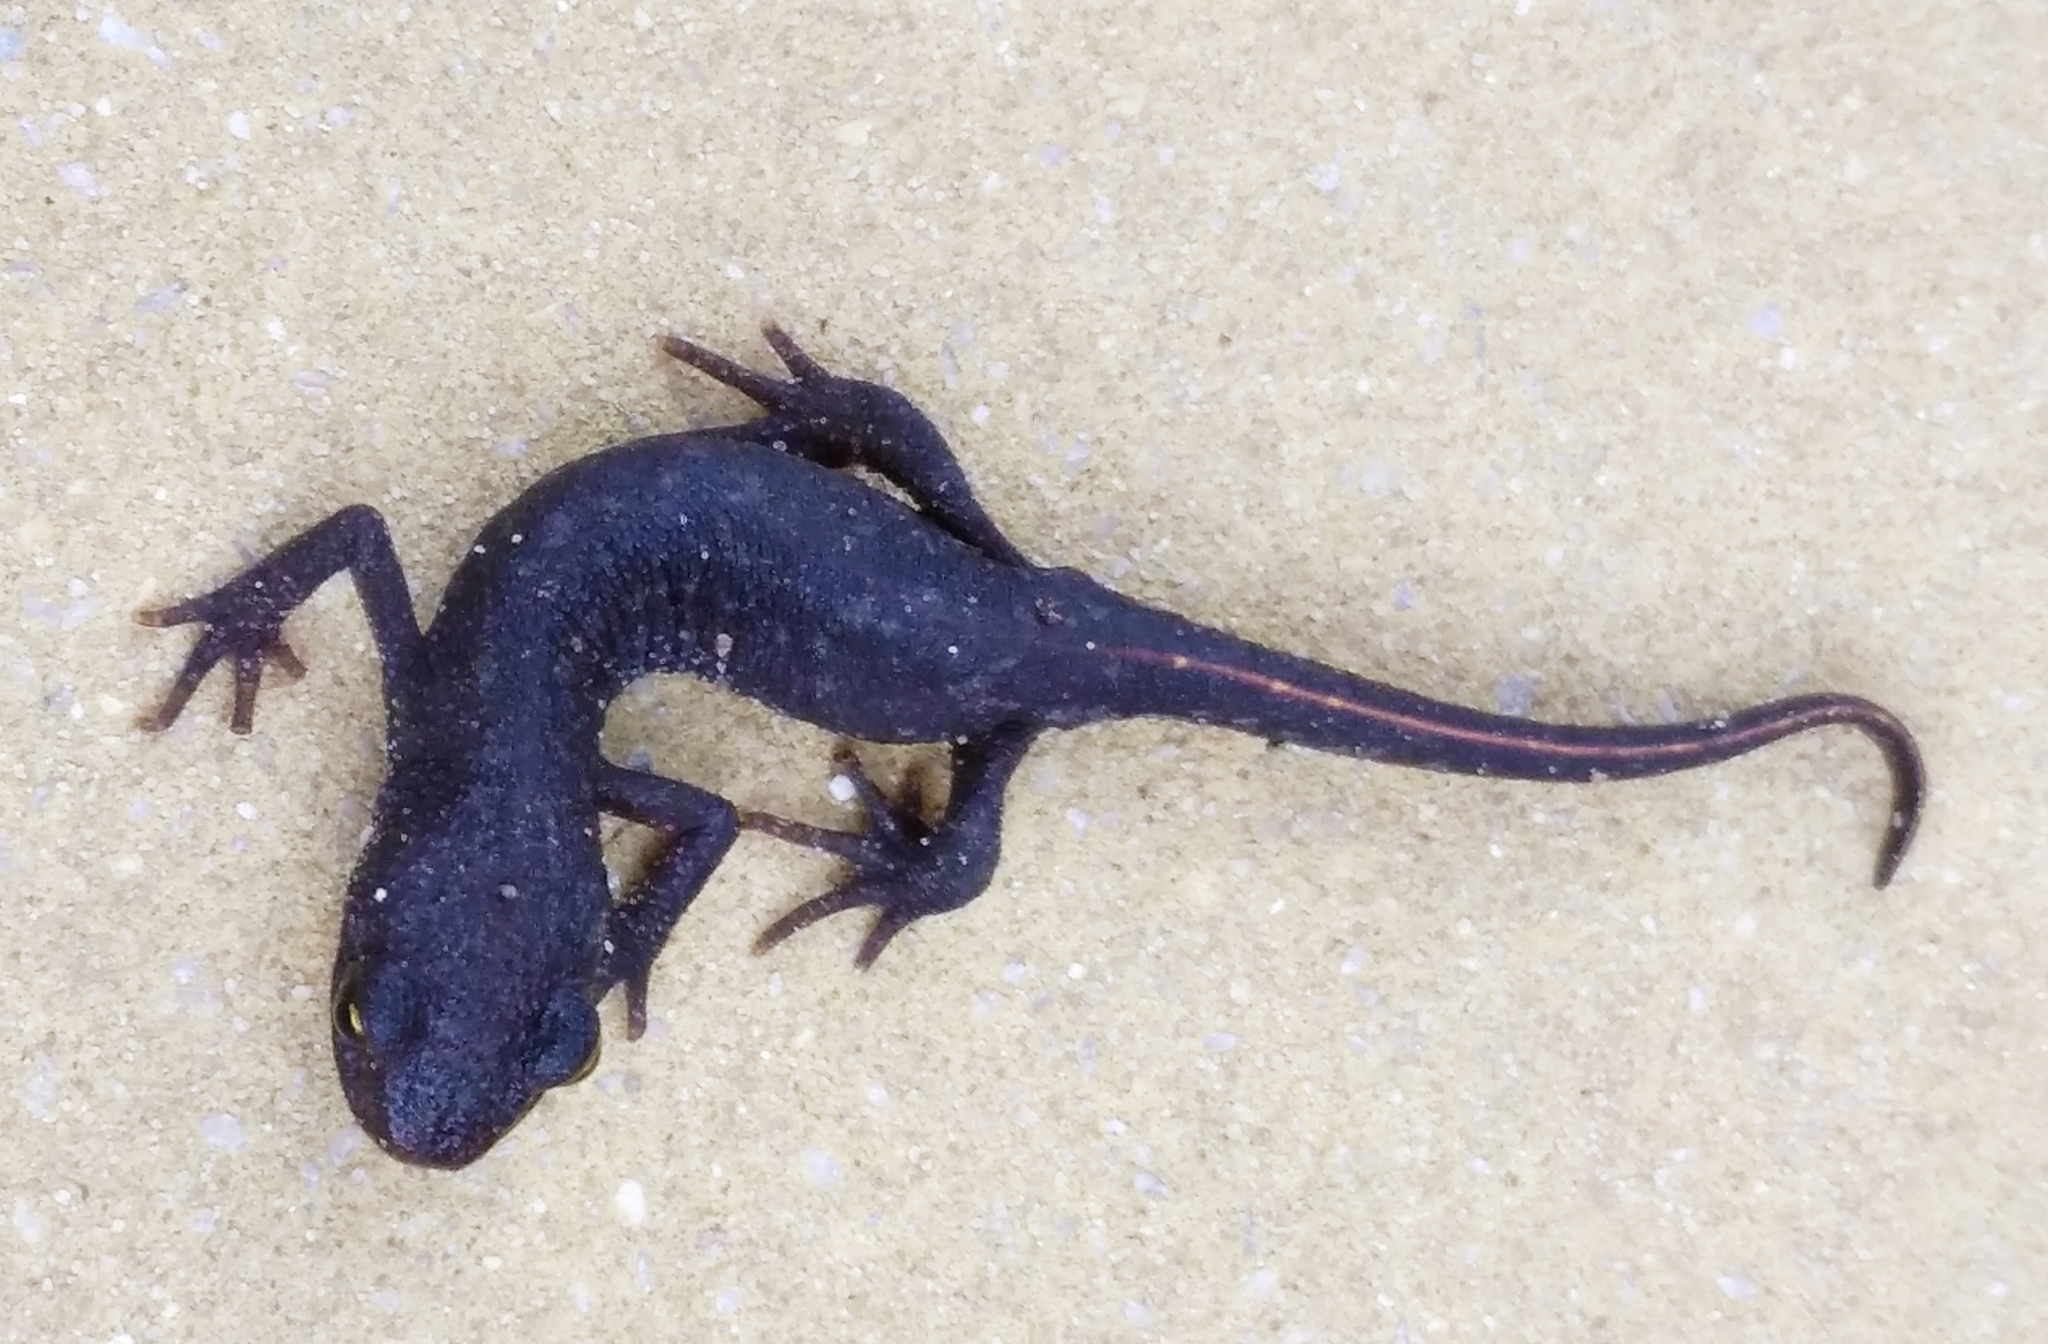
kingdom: Animalia
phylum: Chordata
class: Amphibia
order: Caudata
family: Salamandridae
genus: Triturus
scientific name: Triturus ivanbureschi
